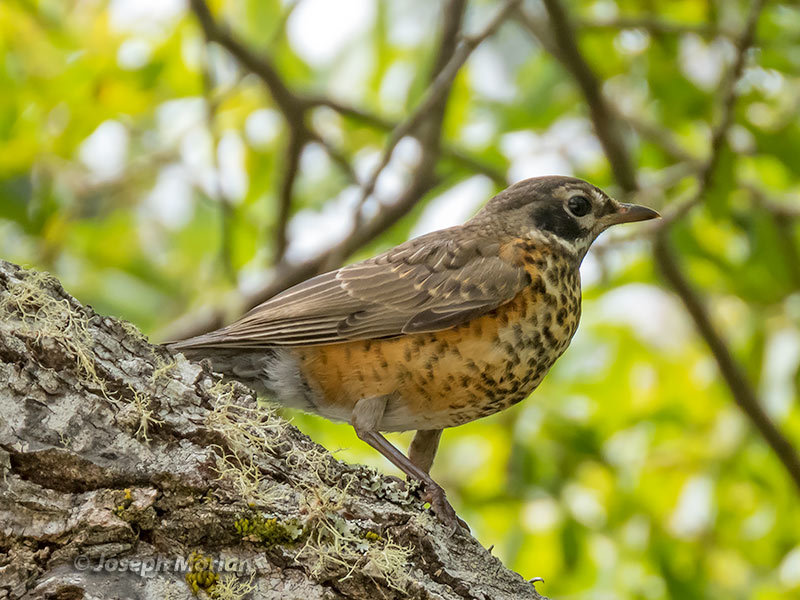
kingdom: Animalia
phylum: Chordata
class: Aves
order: Passeriformes
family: Turdidae
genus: Turdus
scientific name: Turdus migratorius
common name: American robin
